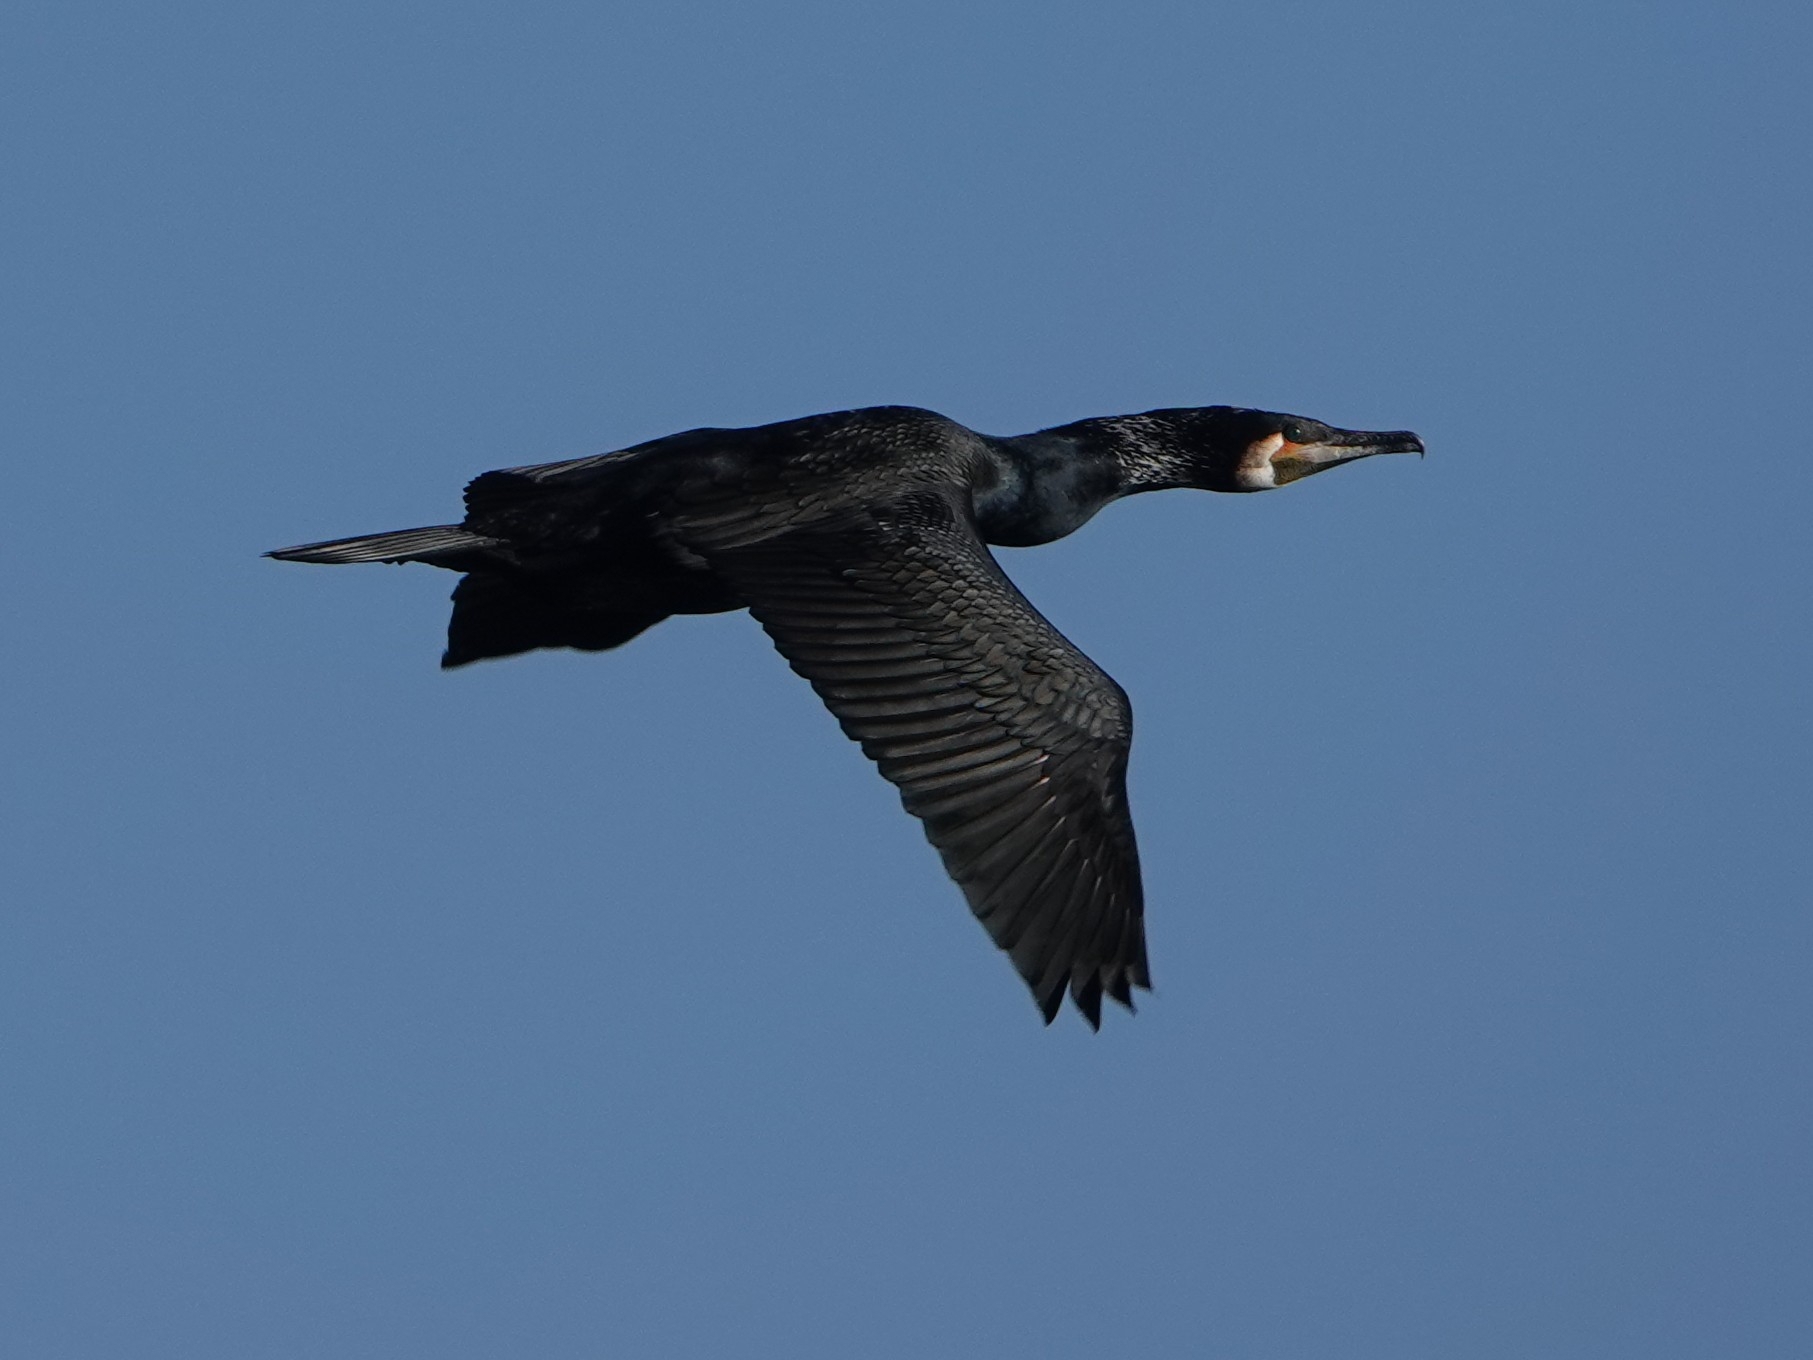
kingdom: Animalia
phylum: Chordata
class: Aves
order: Suliformes
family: Phalacrocoracidae
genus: Phalacrocorax
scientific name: Phalacrocorax carbo
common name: Great cormorant
